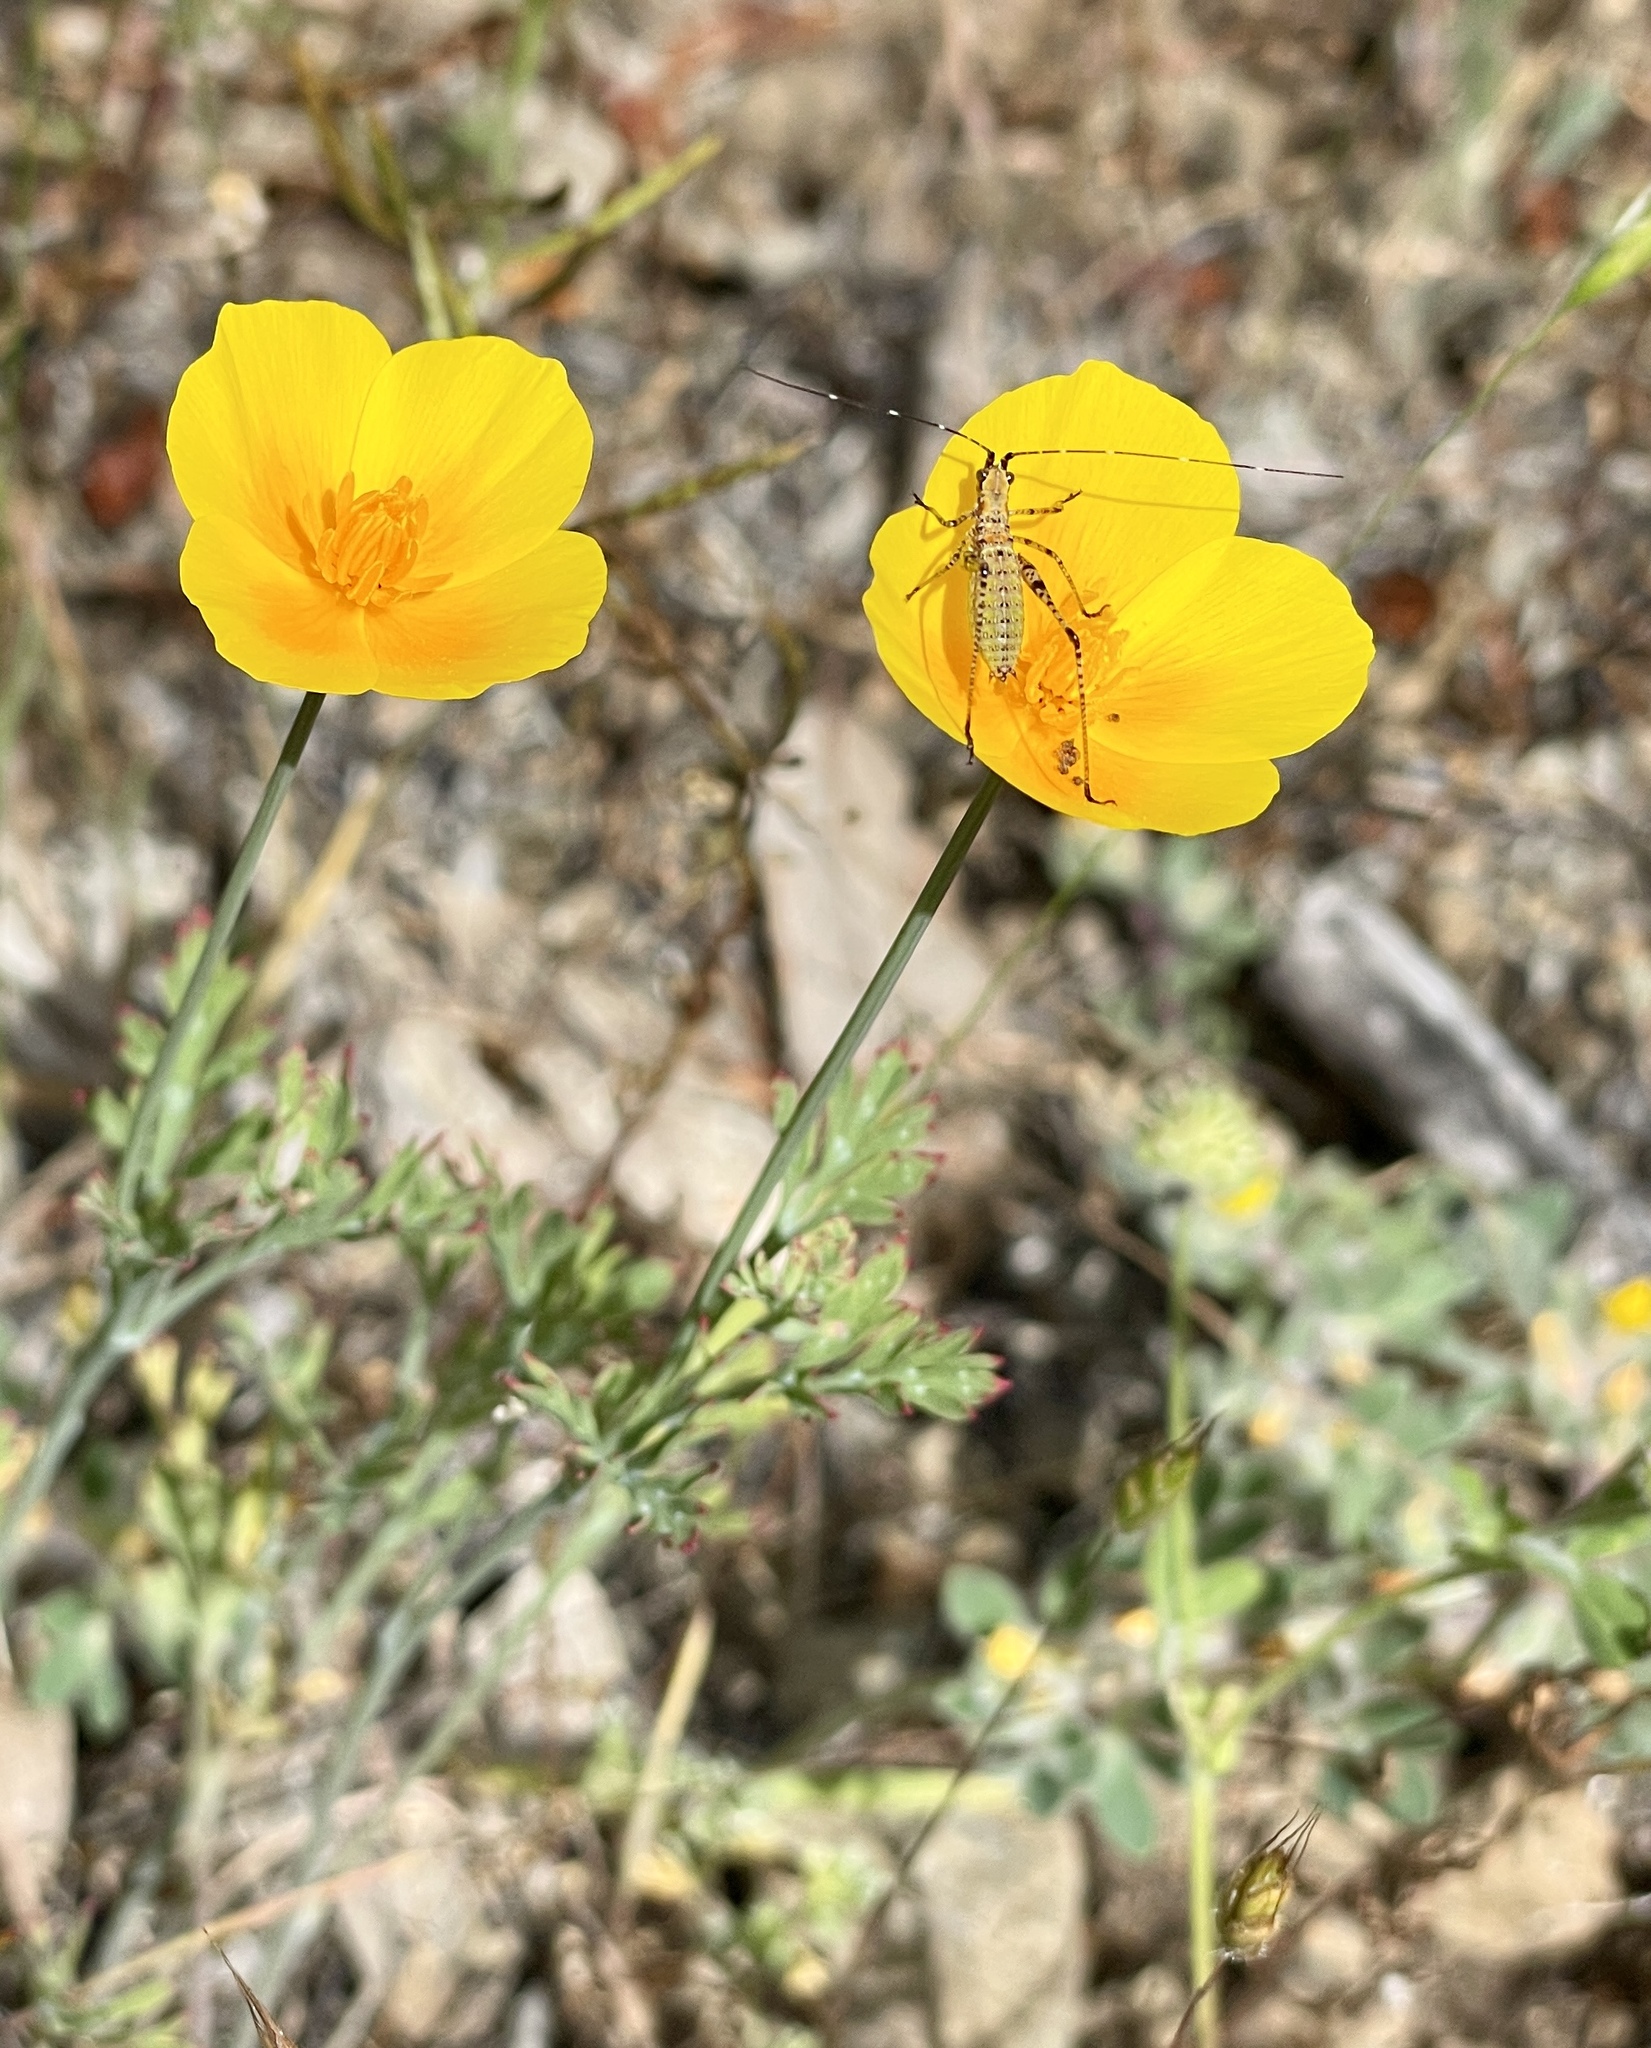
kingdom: Plantae
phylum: Tracheophyta
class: Magnoliopsida
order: Ranunculales
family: Papaveraceae
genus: Eschscholzia
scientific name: Eschscholzia californica
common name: California poppy
